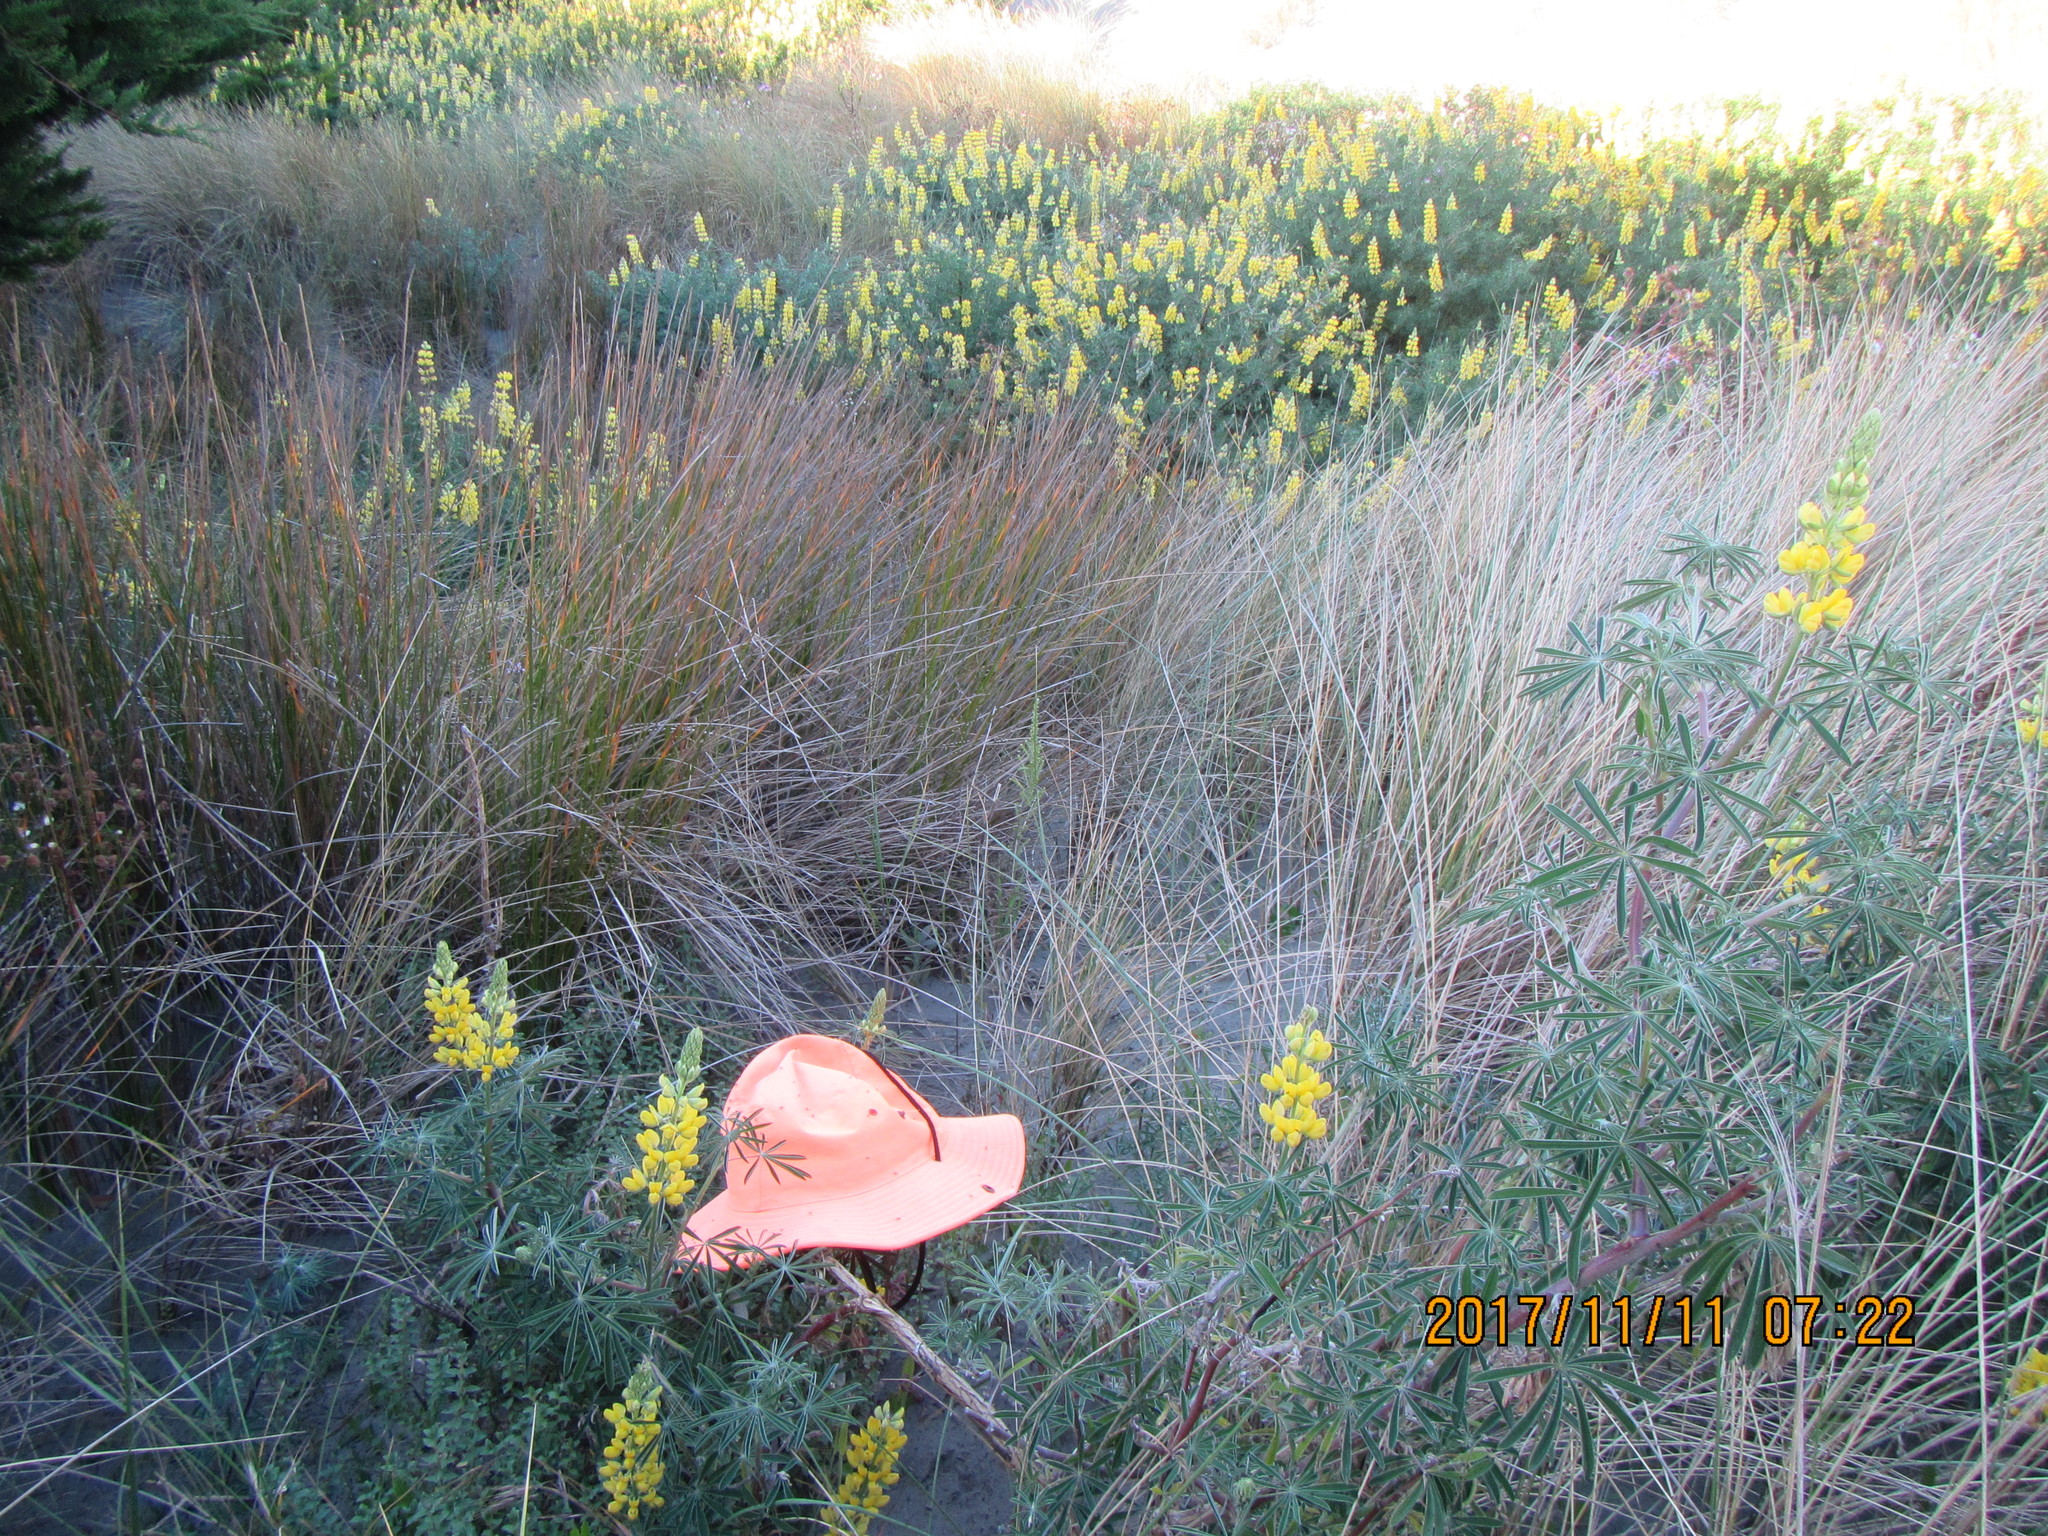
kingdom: Plantae
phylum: Tracheophyta
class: Magnoliopsida
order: Malvales
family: Thymelaeaceae
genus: Pimelea
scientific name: Pimelea villosa
